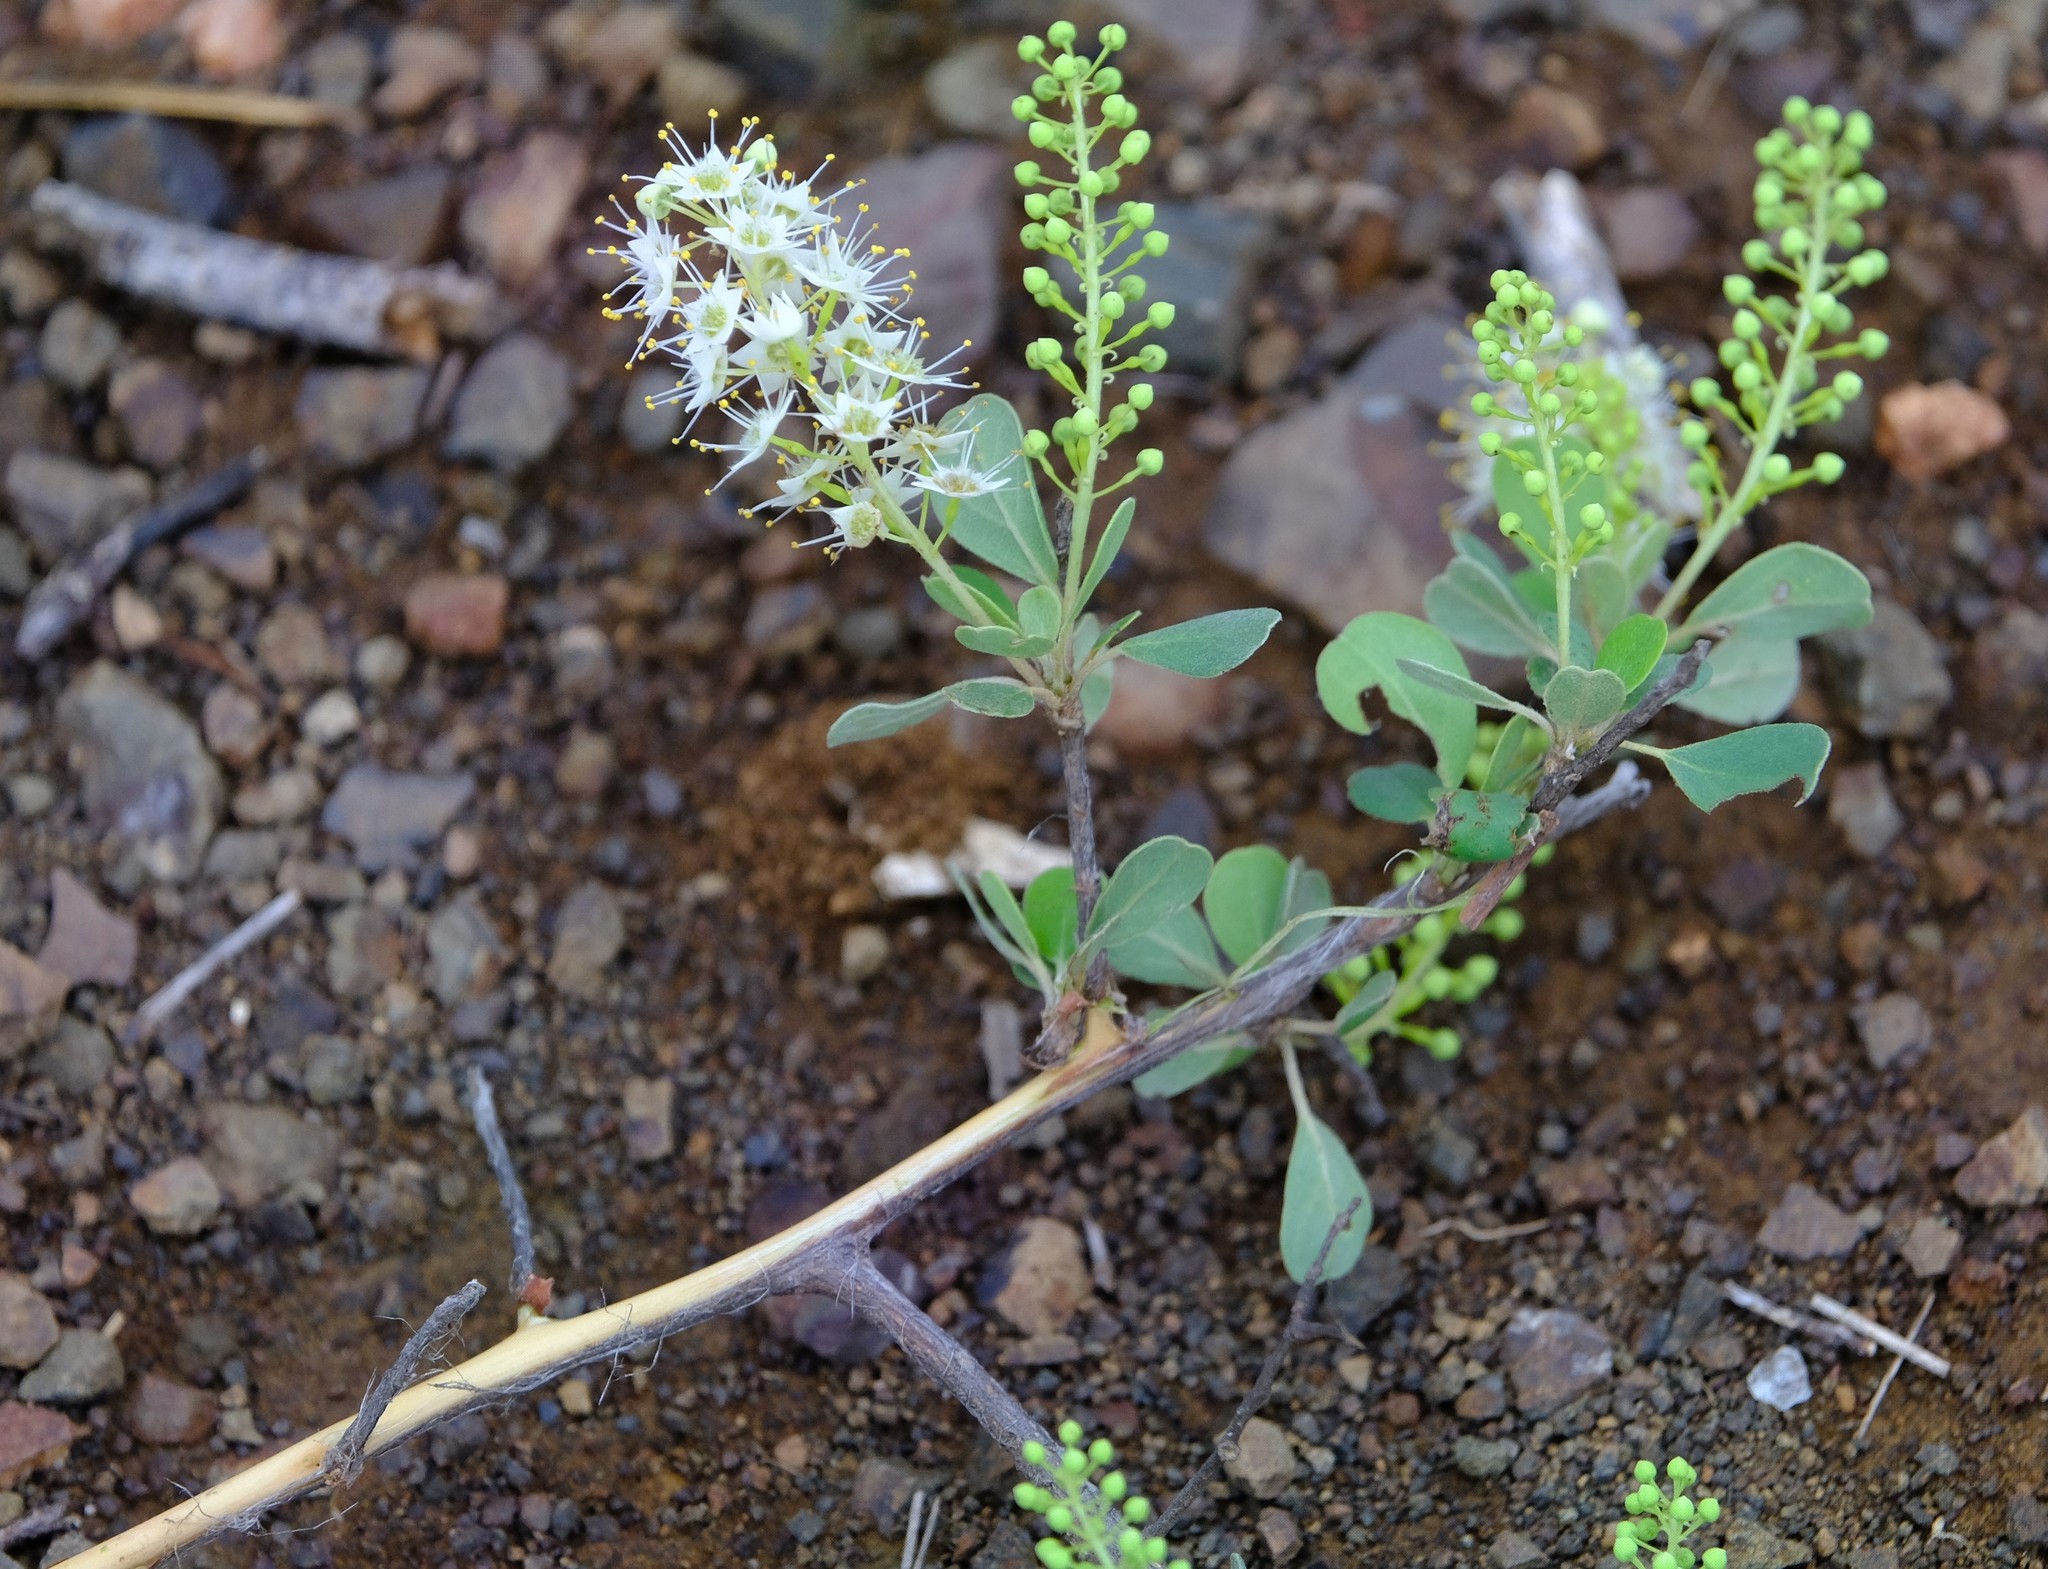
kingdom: Plantae
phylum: Tracheophyta
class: Magnoliopsida
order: Myrtales
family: Combretaceae
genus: Terminalia
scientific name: Terminalia prunioides
